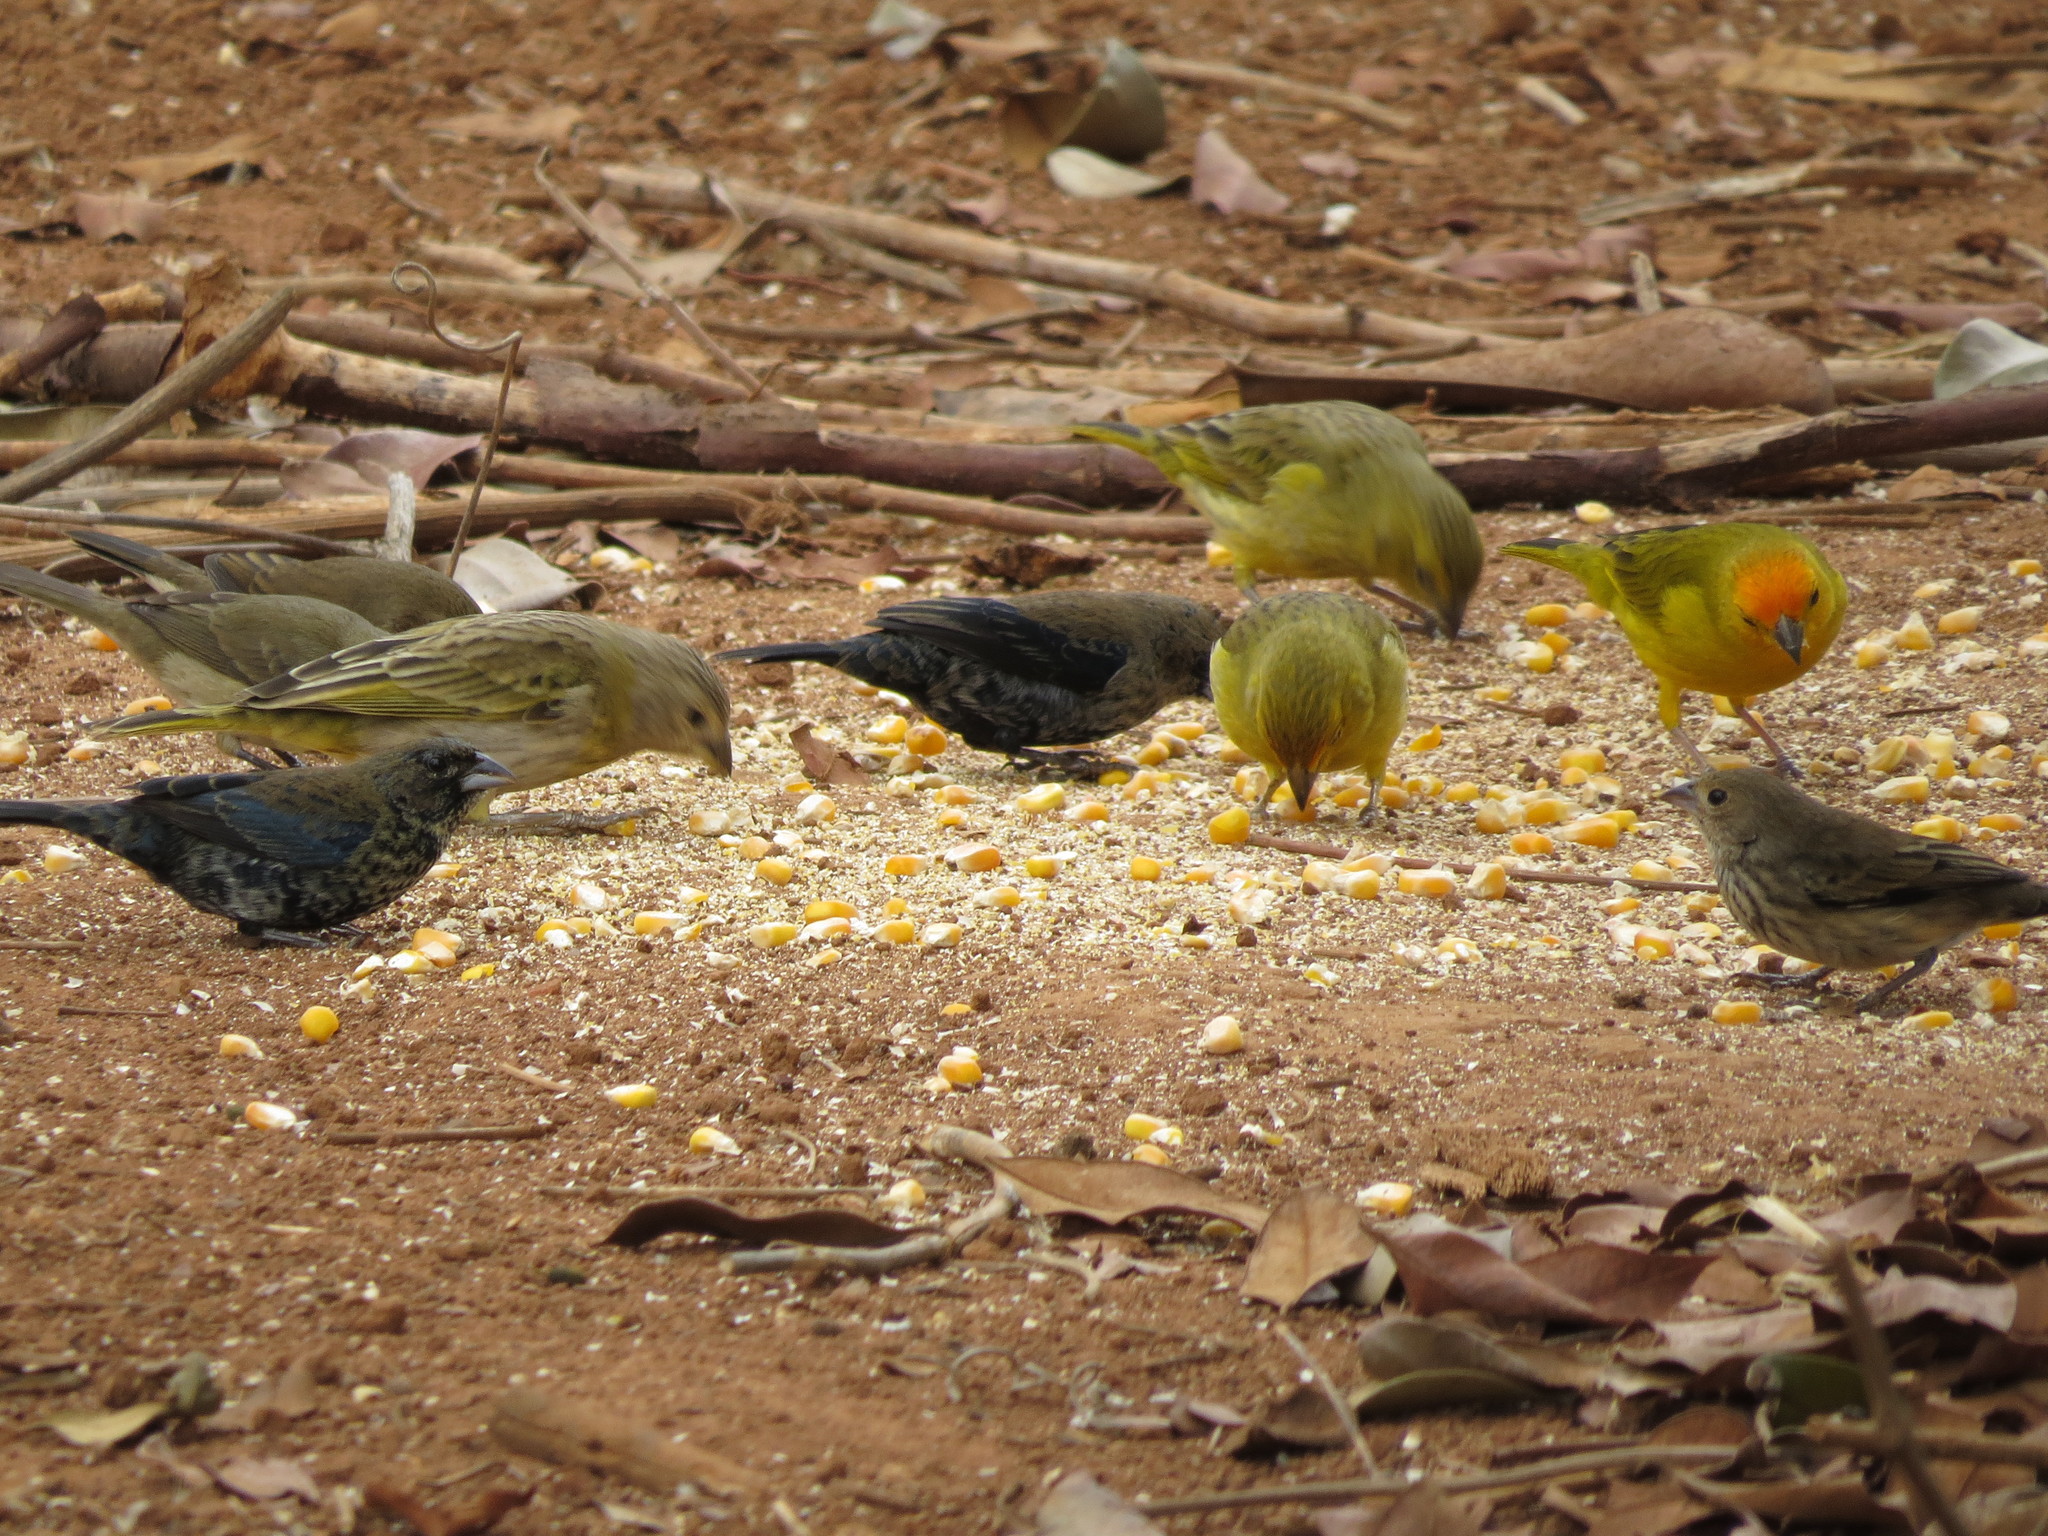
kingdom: Animalia
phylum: Chordata
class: Aves
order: Passeriformes
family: Thraupidae
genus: Sicalis
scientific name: Sicalis flaveola
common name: Saffron finch
